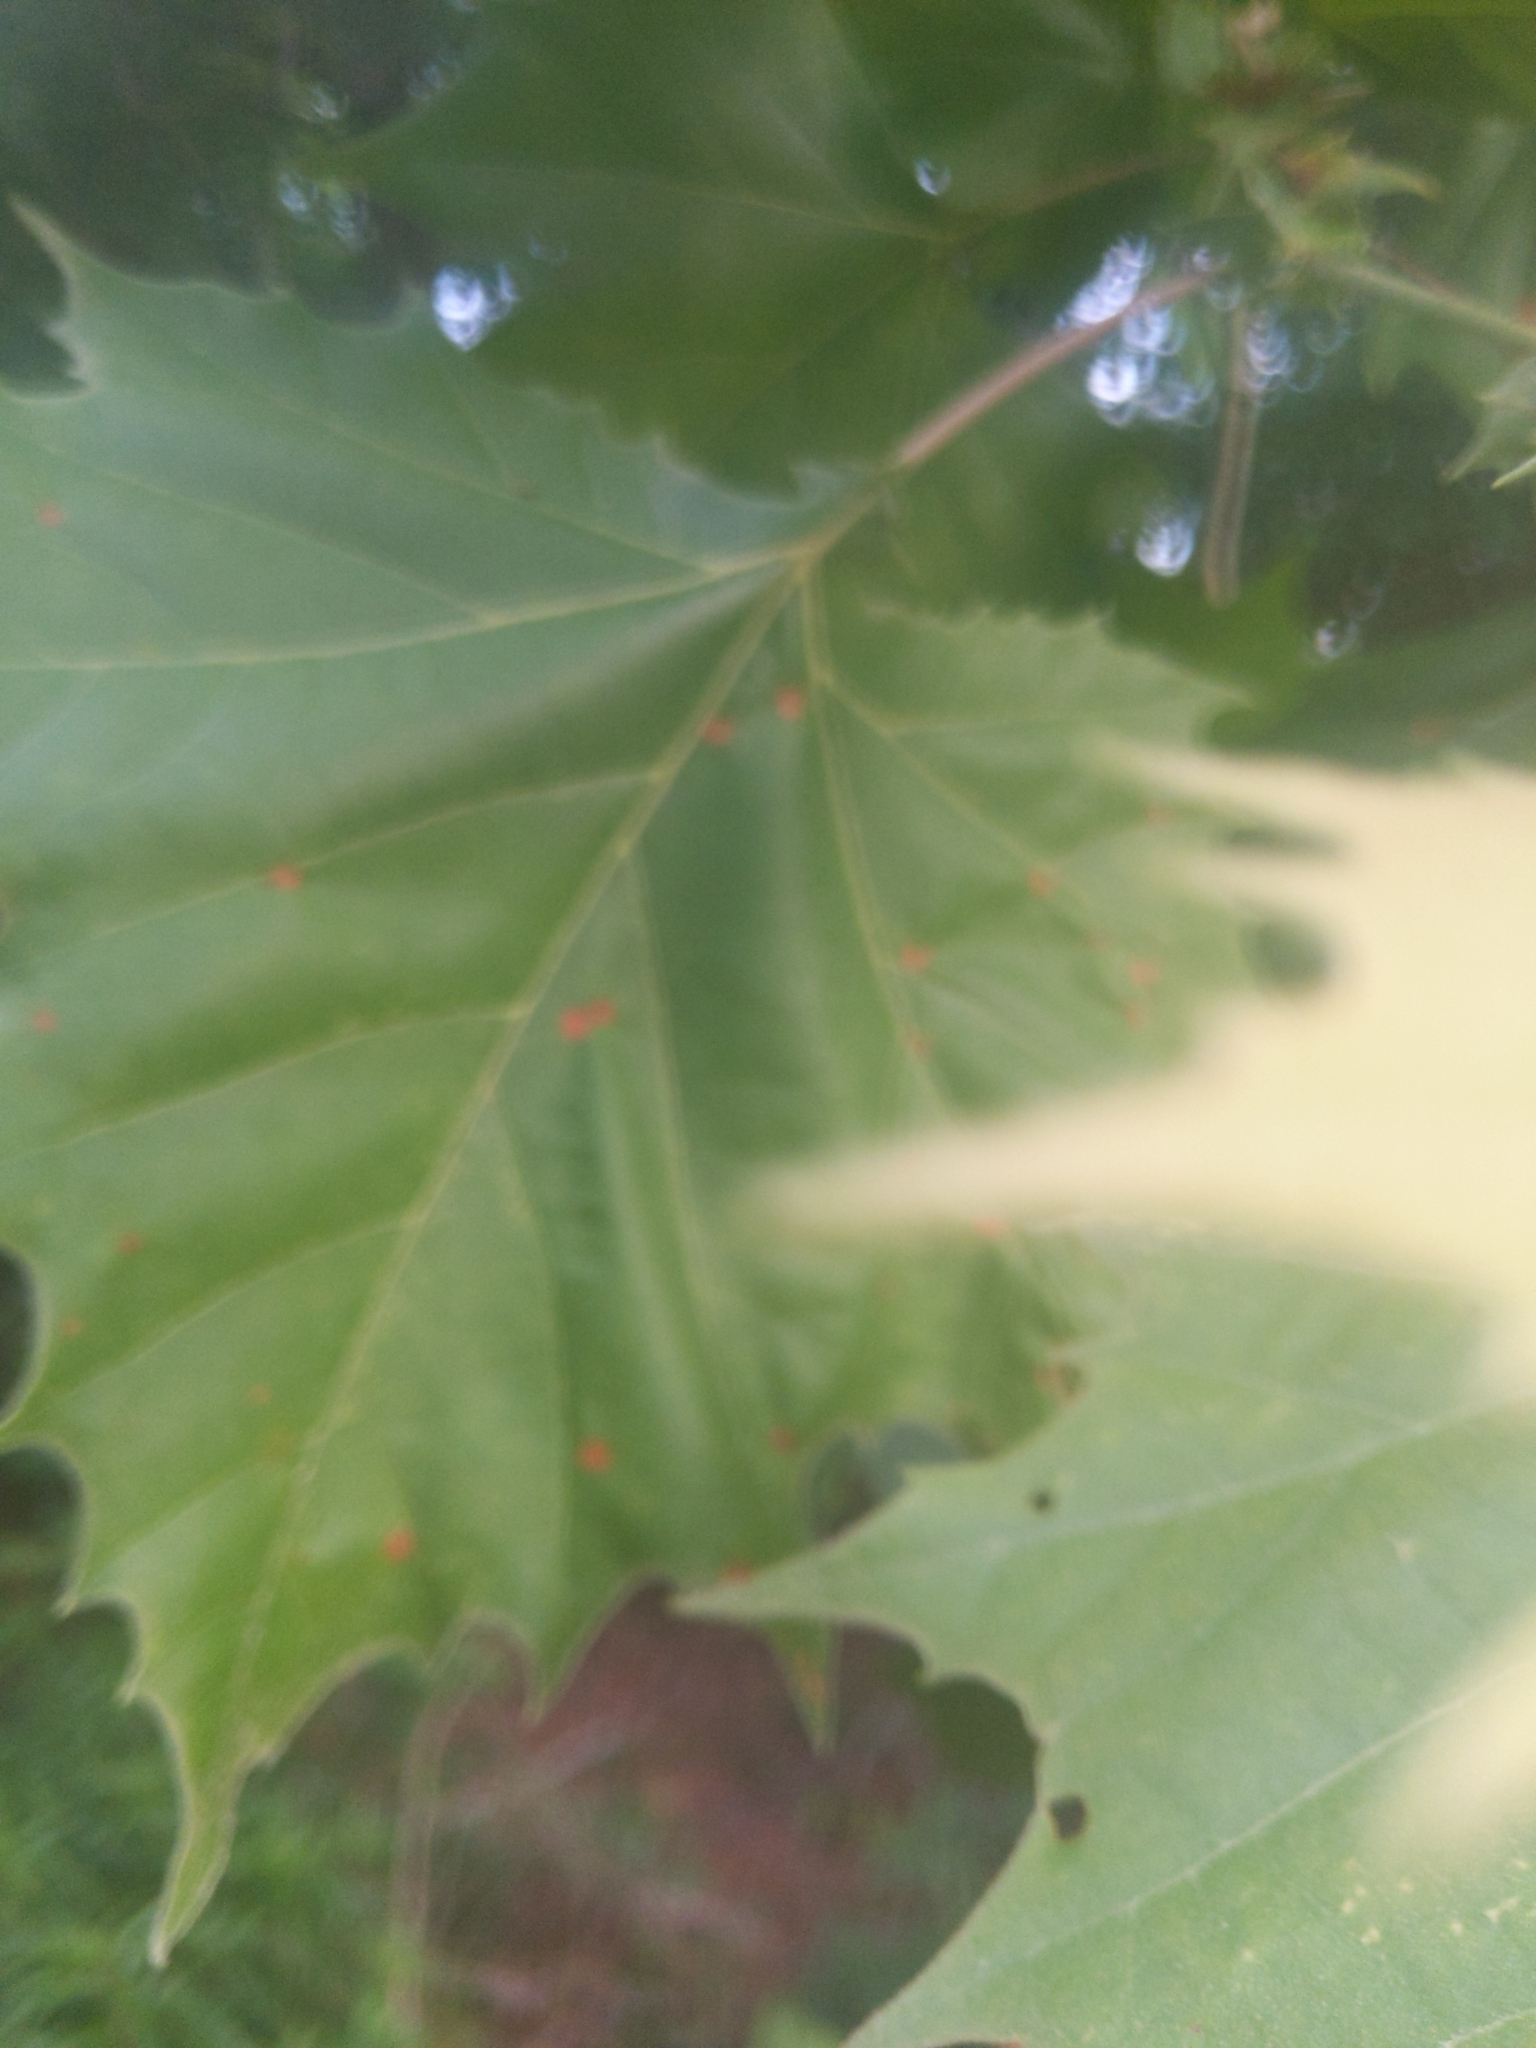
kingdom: Plantae
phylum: Tracheophyta
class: Magnoliopsida
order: Proteales
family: Platanaceae
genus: Platanus
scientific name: Platanus occidentalis
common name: American sycamore
